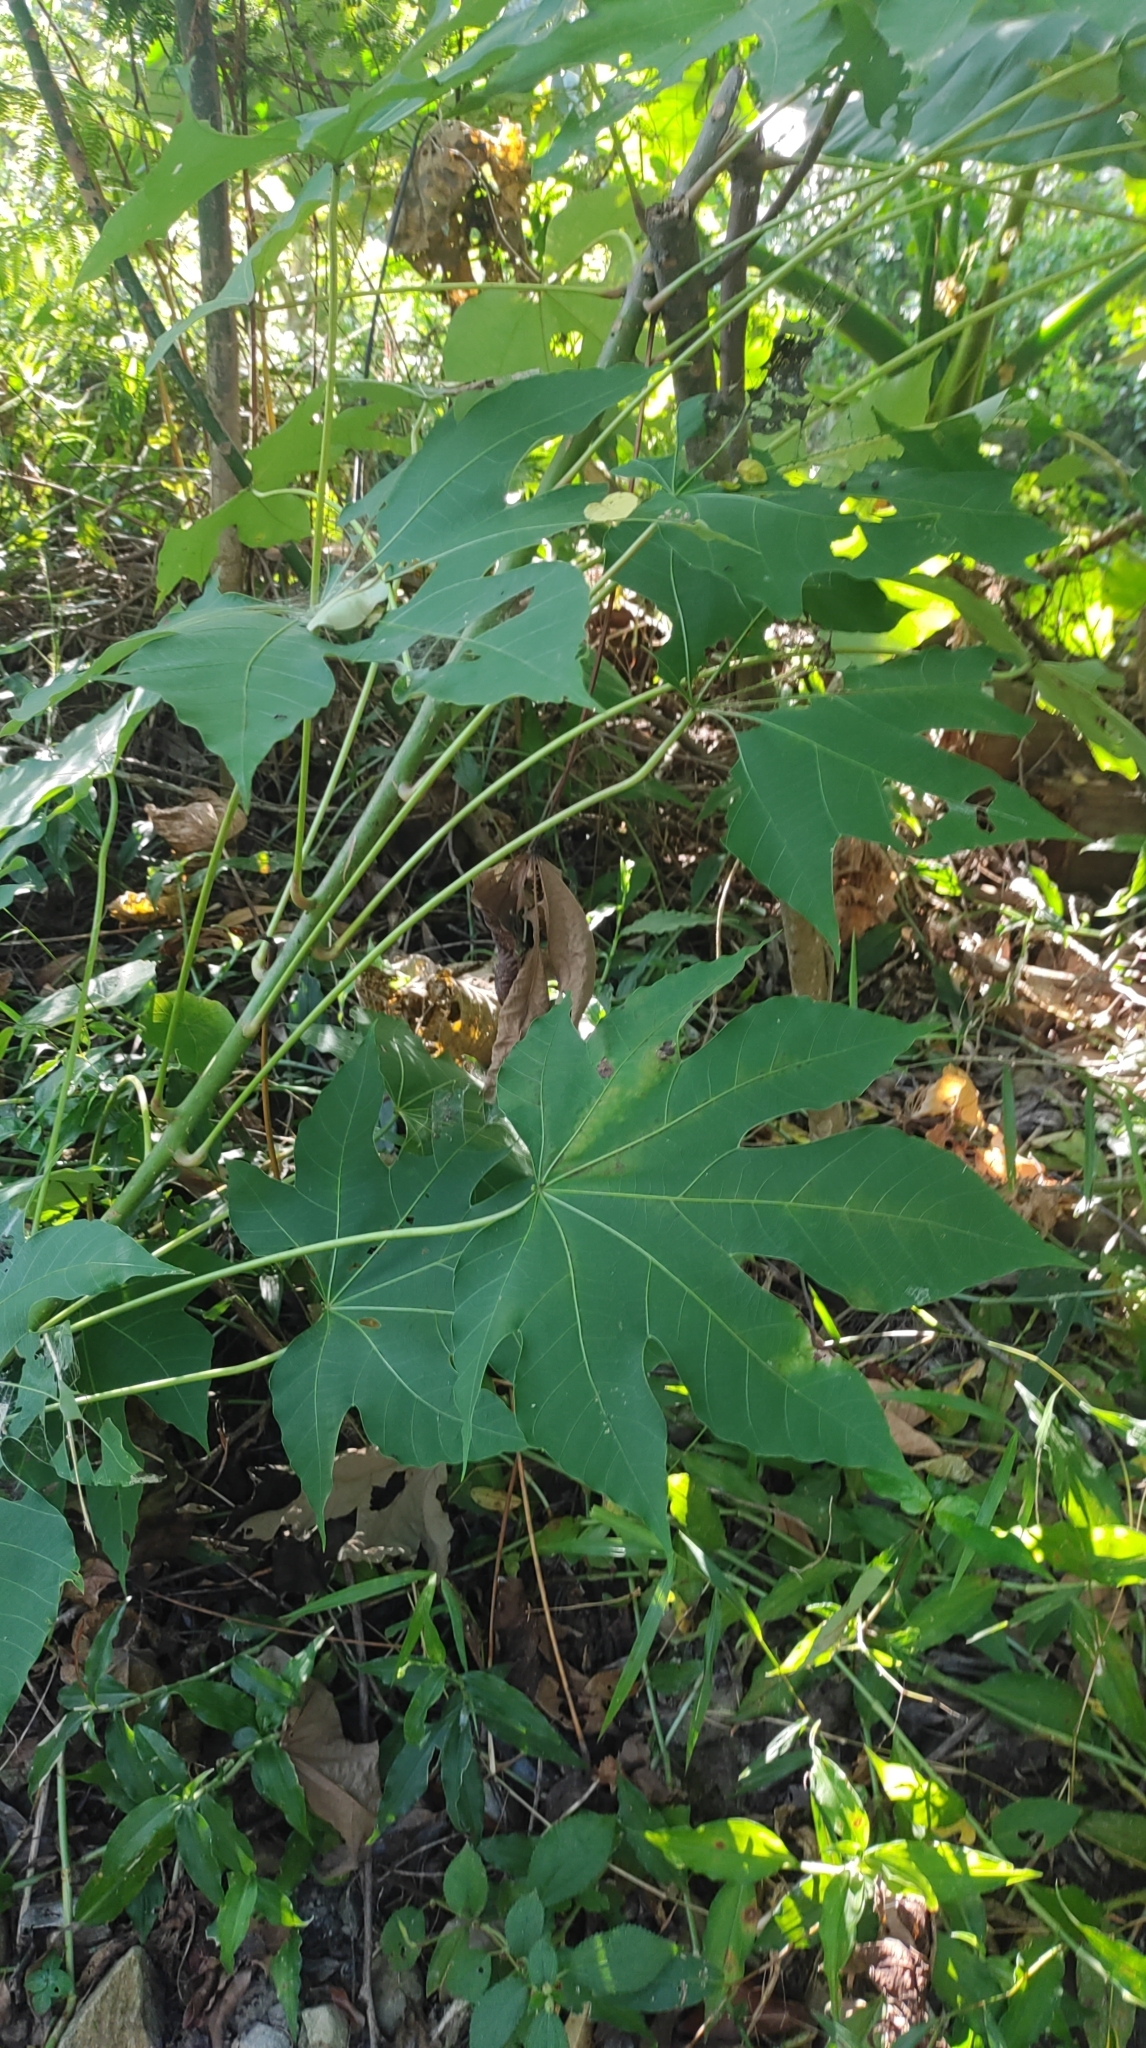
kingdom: Plantae
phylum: Tracheophyta
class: Magnoliopsida
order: Malpighiales
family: Euphorbiaceae
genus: Vernicia
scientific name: Vernicia montana
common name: Mu oil tree
